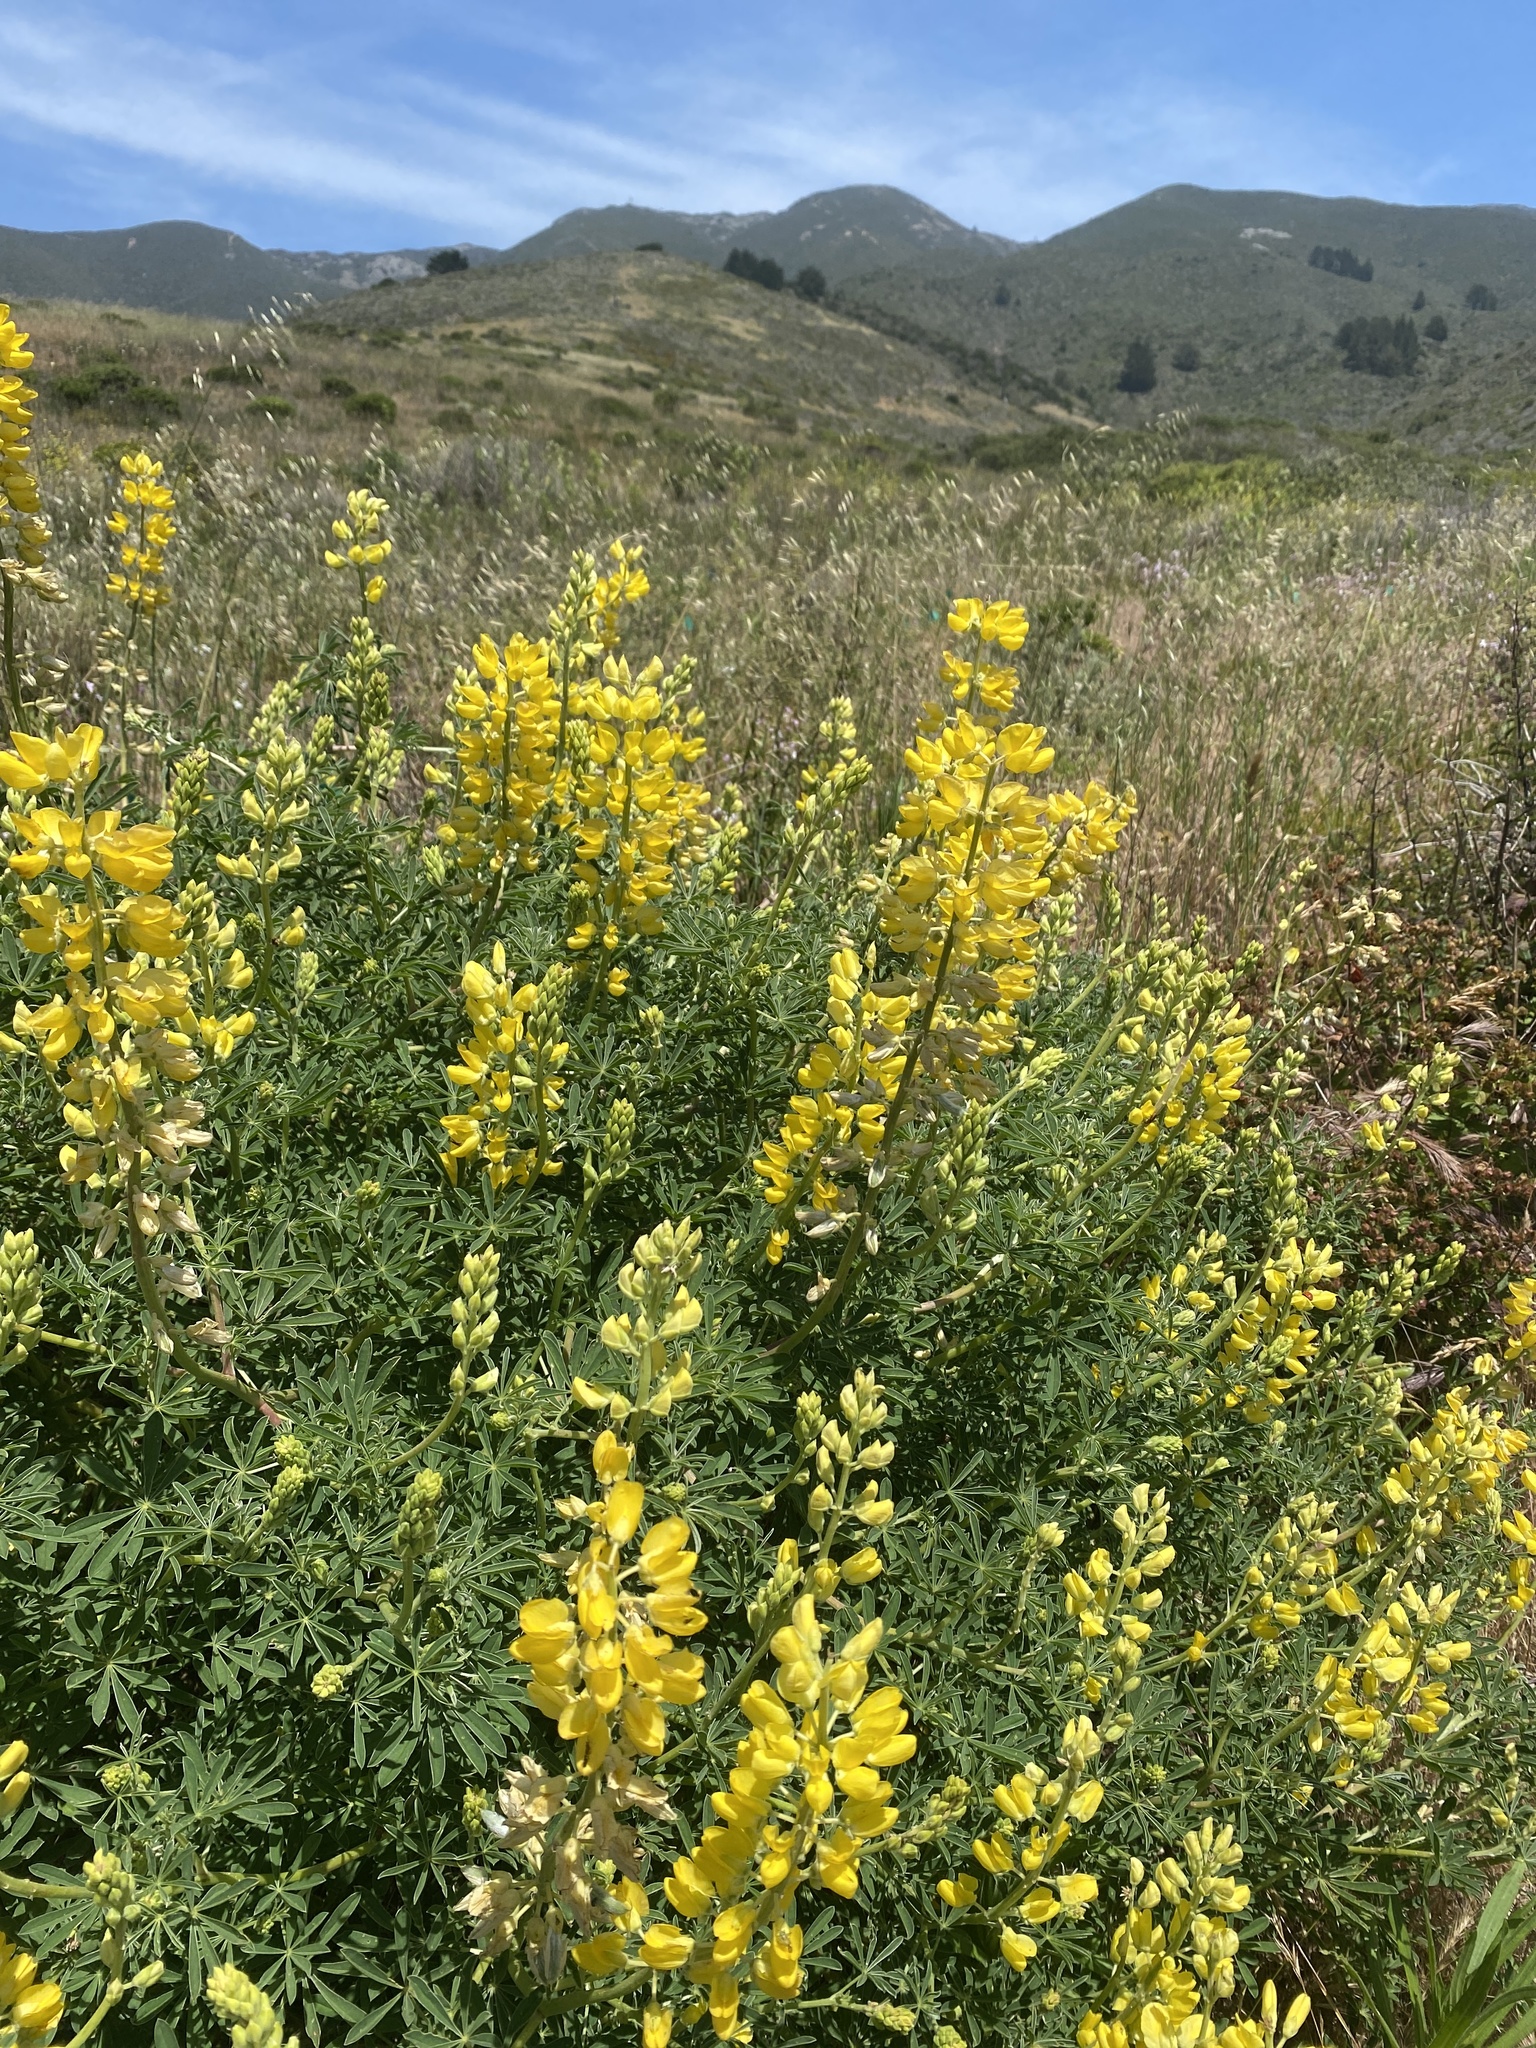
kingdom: Plantae
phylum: Tracheophyta
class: Magnoliopsida
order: Fabales
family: Fabaceae
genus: Lupinus
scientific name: Lupinus arboreus
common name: Yellow bush lupine
